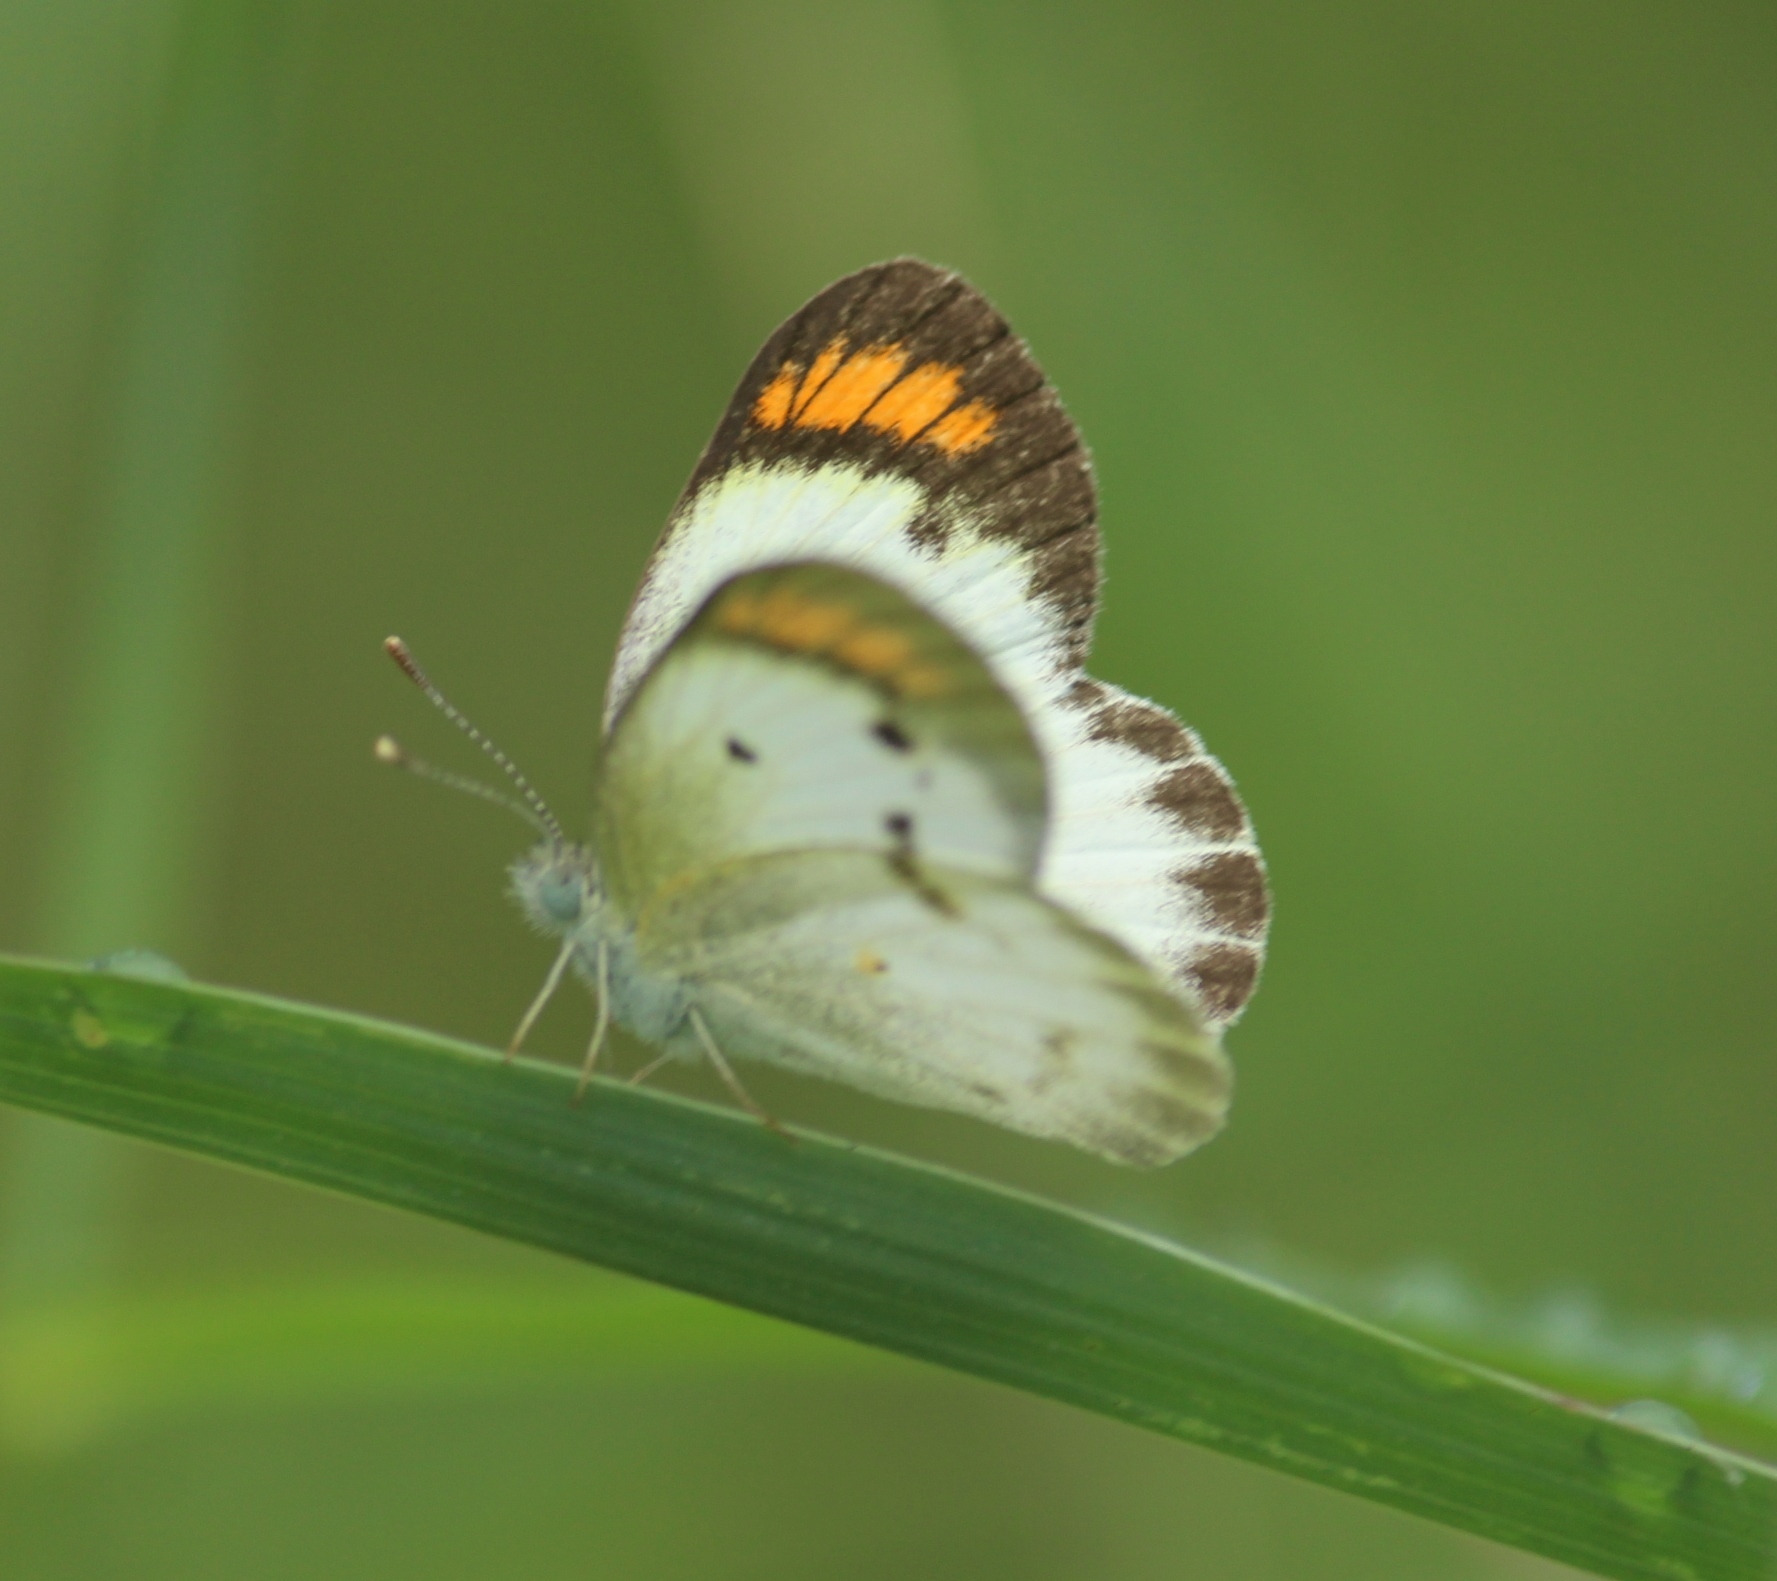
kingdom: Animalia
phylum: Arthropoda
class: Insecta
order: Lepidoptera
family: Pieridae
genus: Colotis
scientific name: Colotis etrida
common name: Little orange tip
